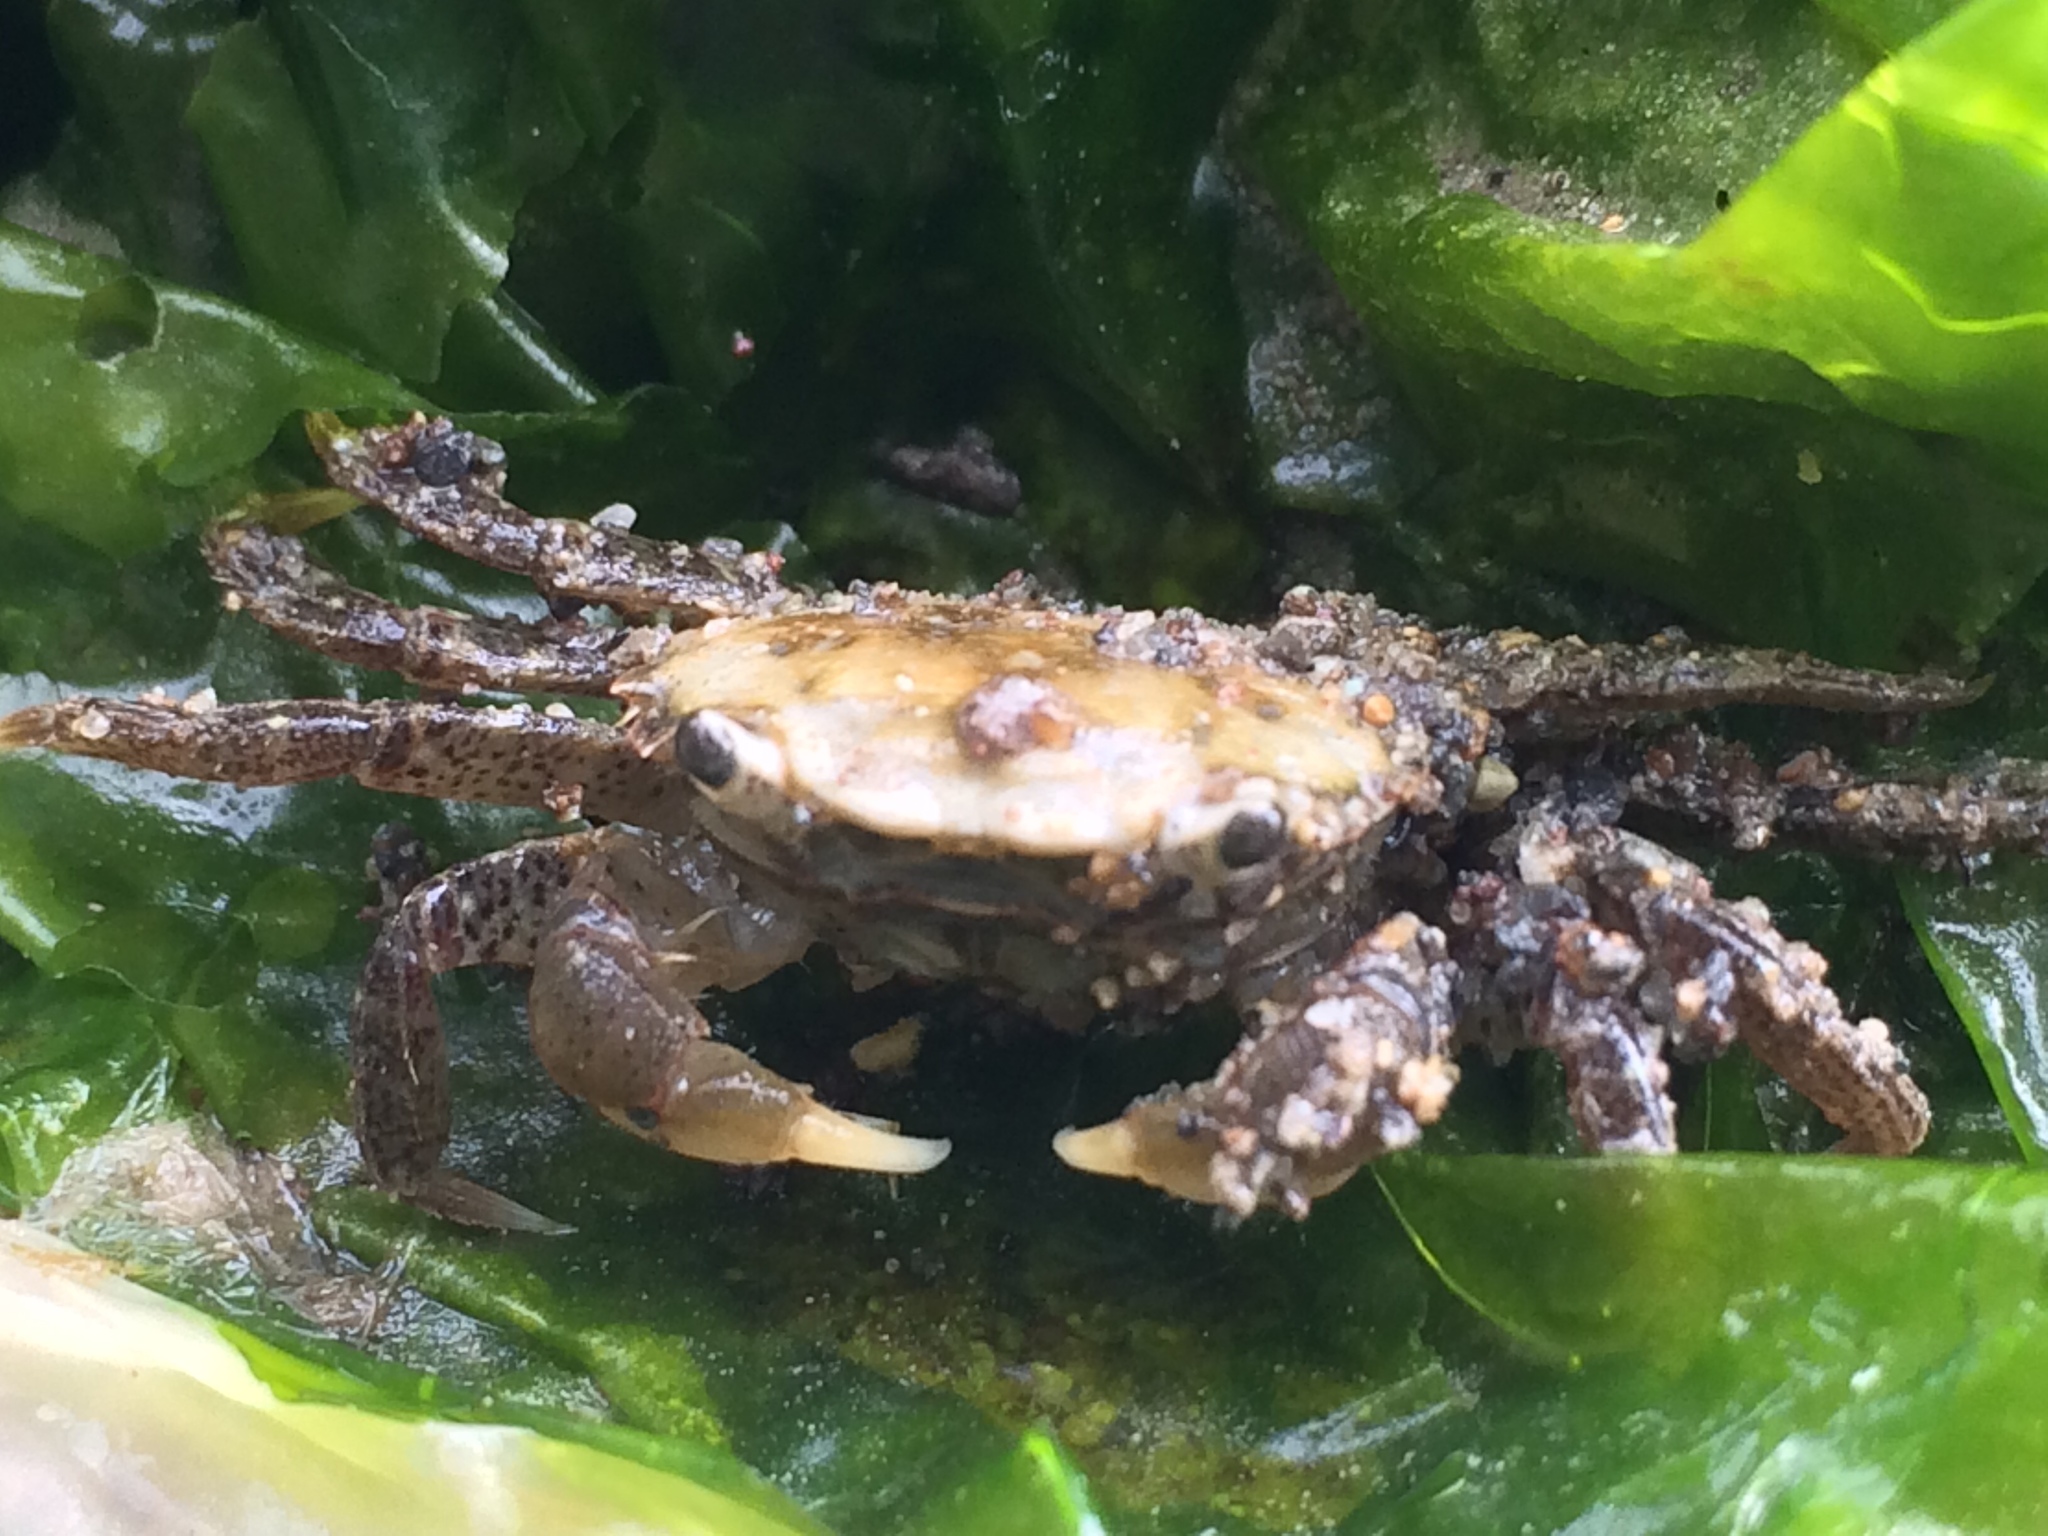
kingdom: Animalia
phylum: Arthropoda
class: Malacostraca
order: Decapoda
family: Varunidae
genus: Hemigrapsus
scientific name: Hemigrapsus oregonensis
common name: Yellow shore crab
